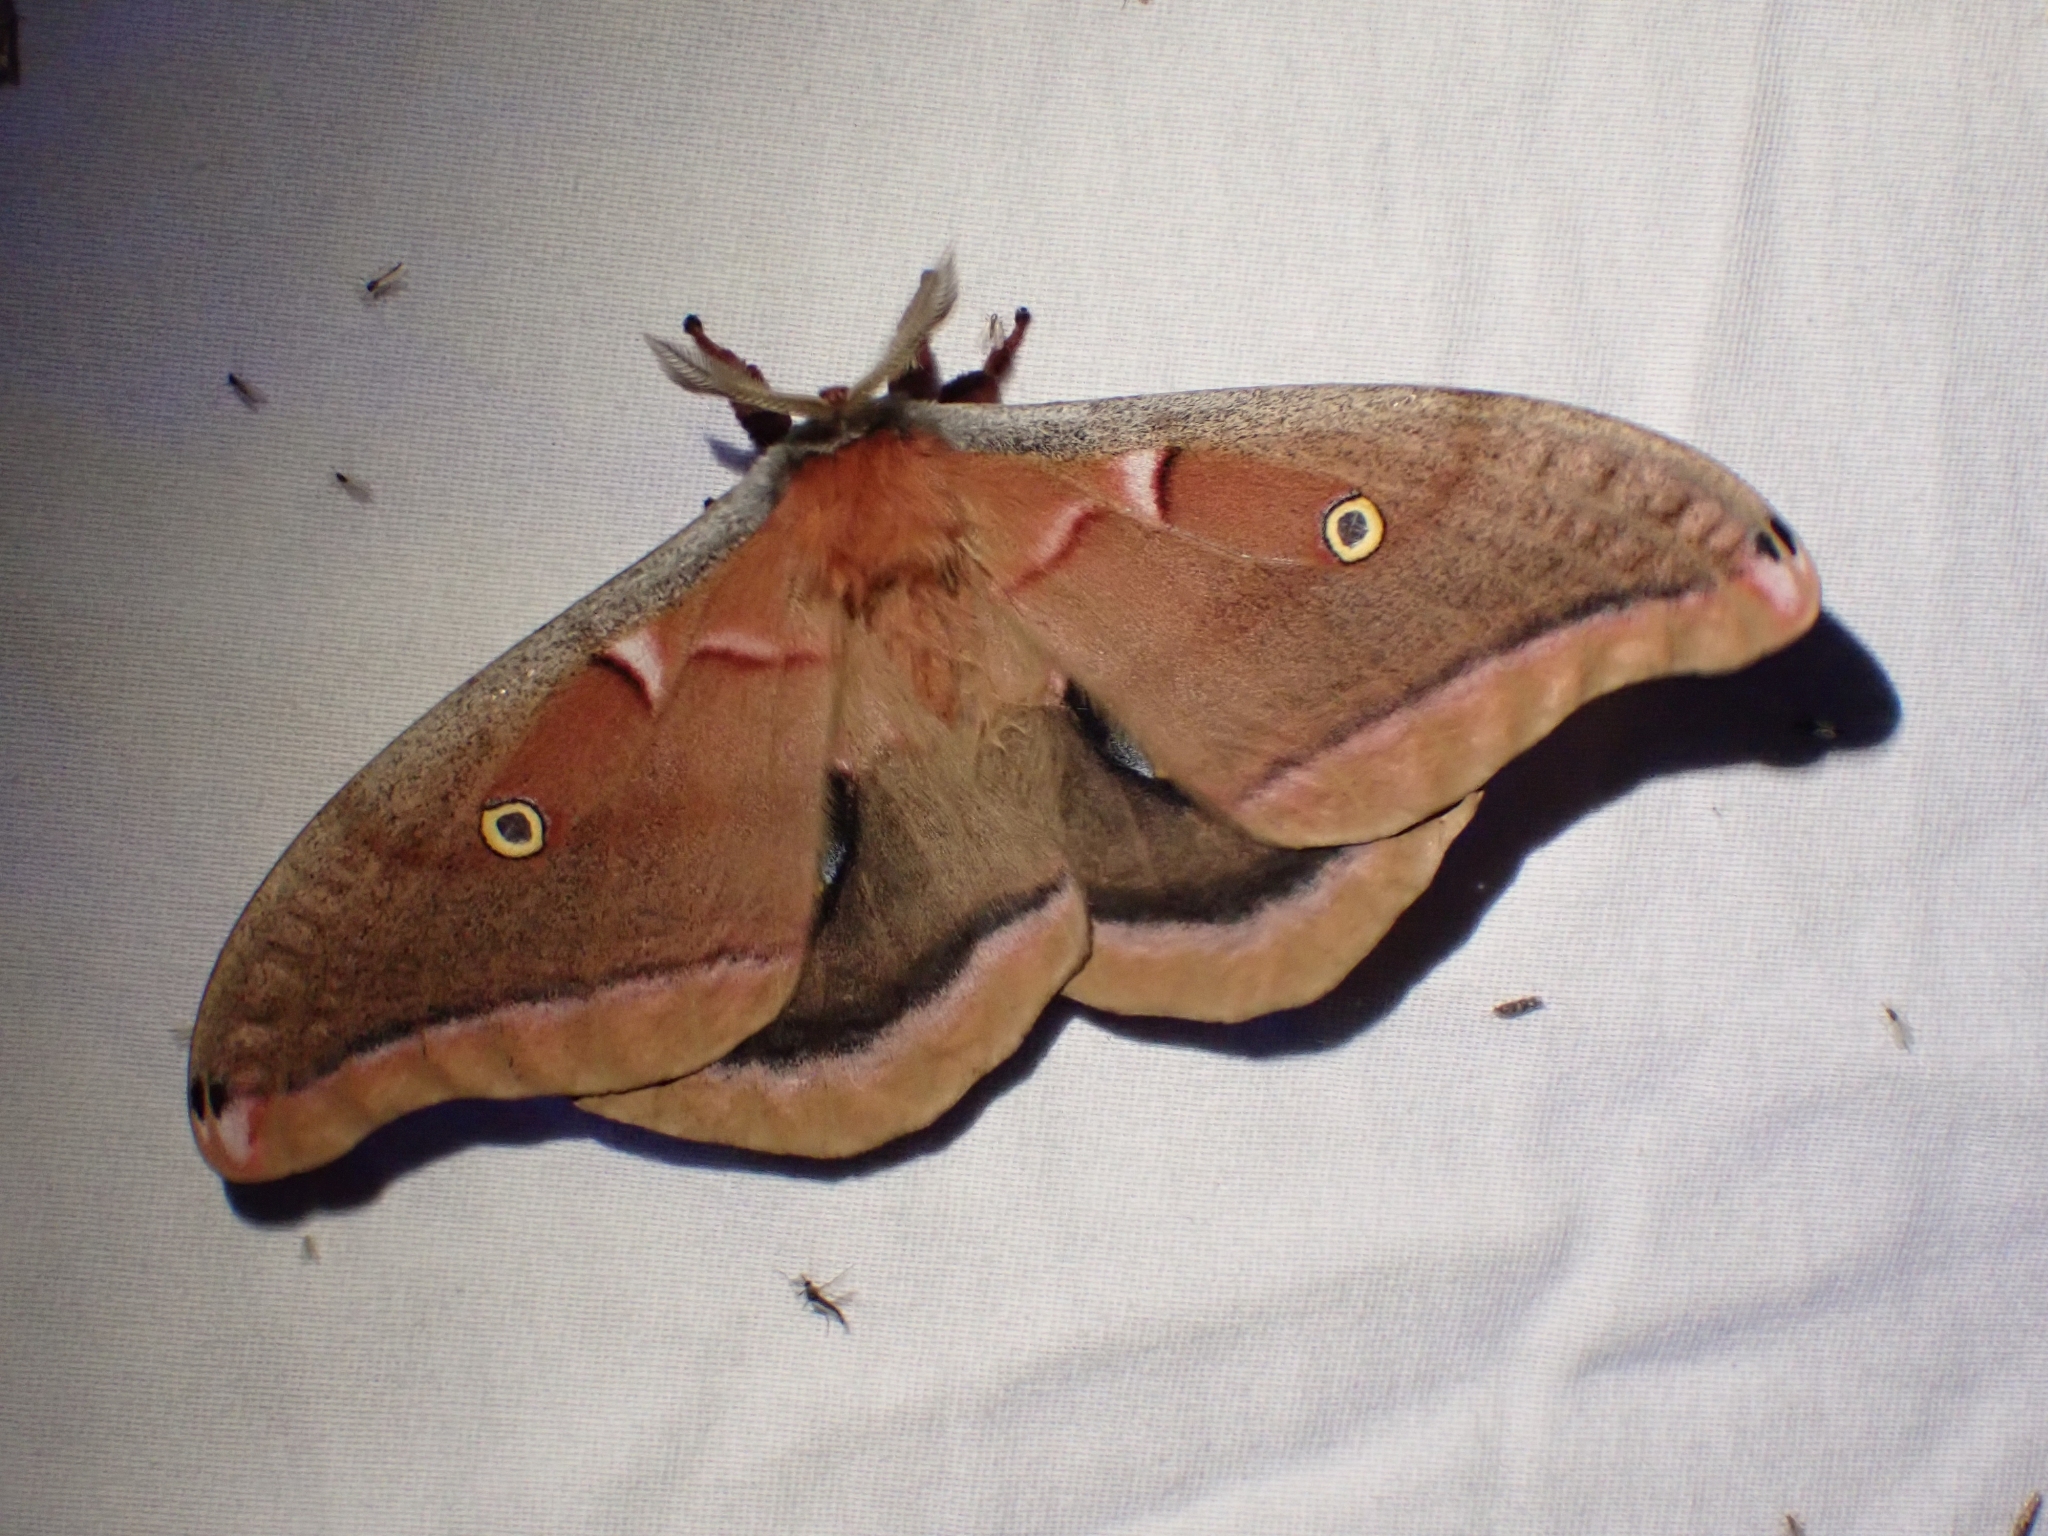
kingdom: Animalia
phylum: Arthropoda
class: Insecta
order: Lepidoptera
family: Saturniidae
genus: Antheraea
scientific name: Antheraea polyphemus
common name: Polyphemus moth
